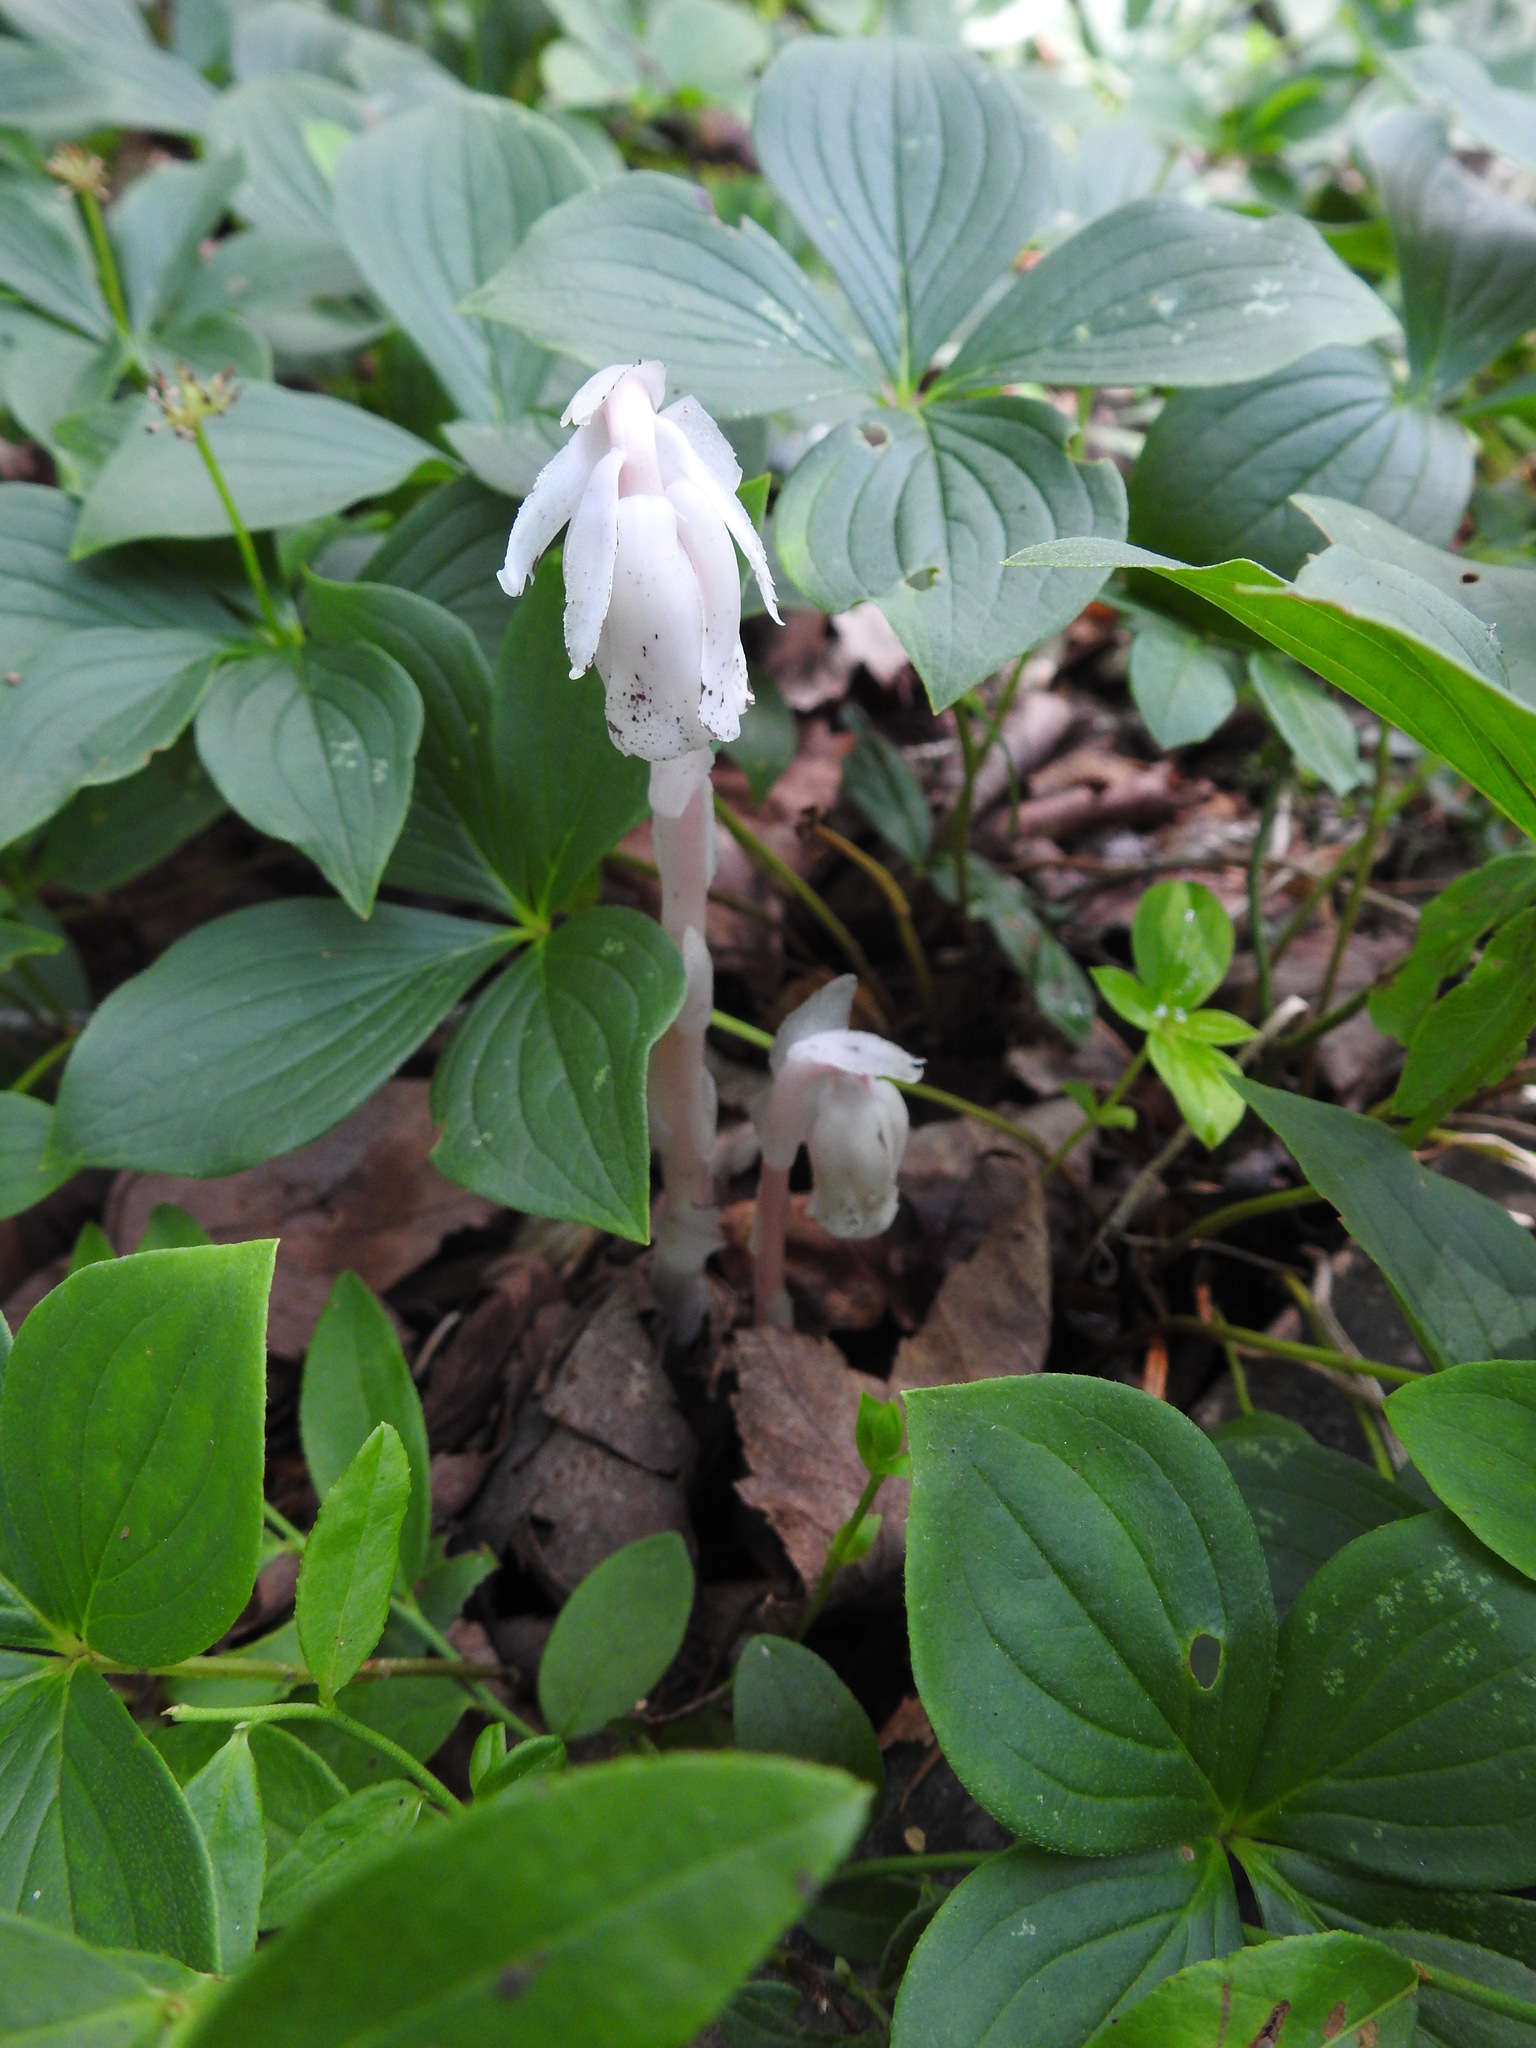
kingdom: Plantae
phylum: Tracheophyta
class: Magnoliopsida
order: Ericales
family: Ericaceae
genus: Monotropa
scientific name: Monotropa uniflora
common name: Convulsion root
